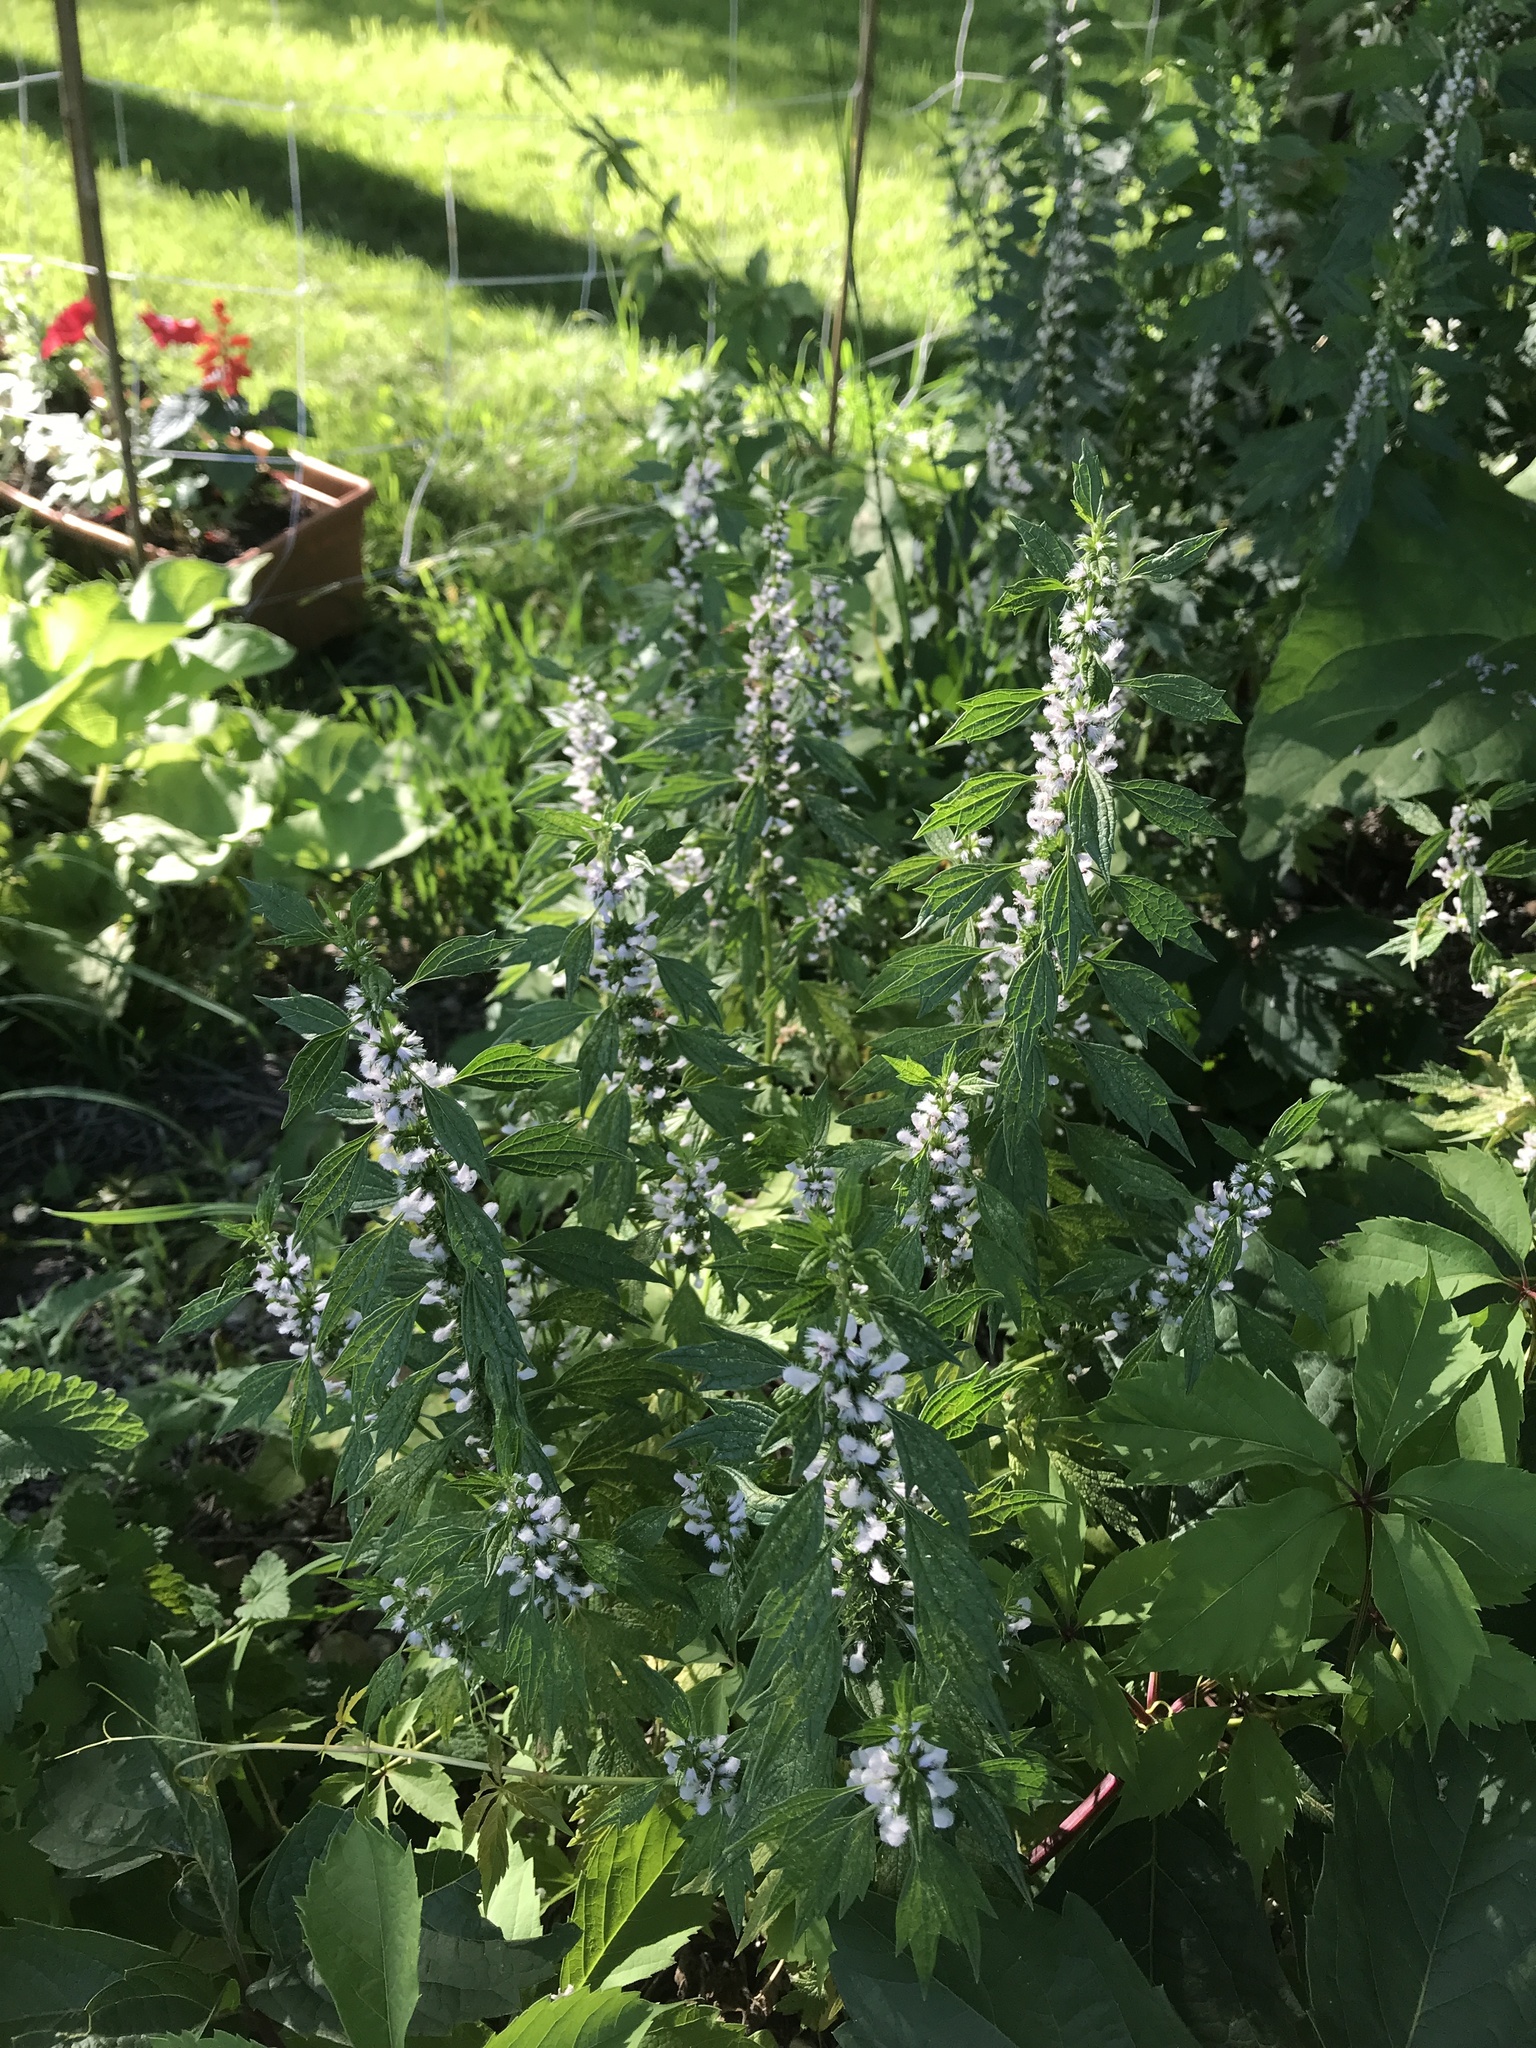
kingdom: Plantae
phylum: Tracheophyta
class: Magnoliopsida
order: Lamiales
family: Lamiaceae
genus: Leonurus
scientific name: Leonurus cardiaca
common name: Motherwort
